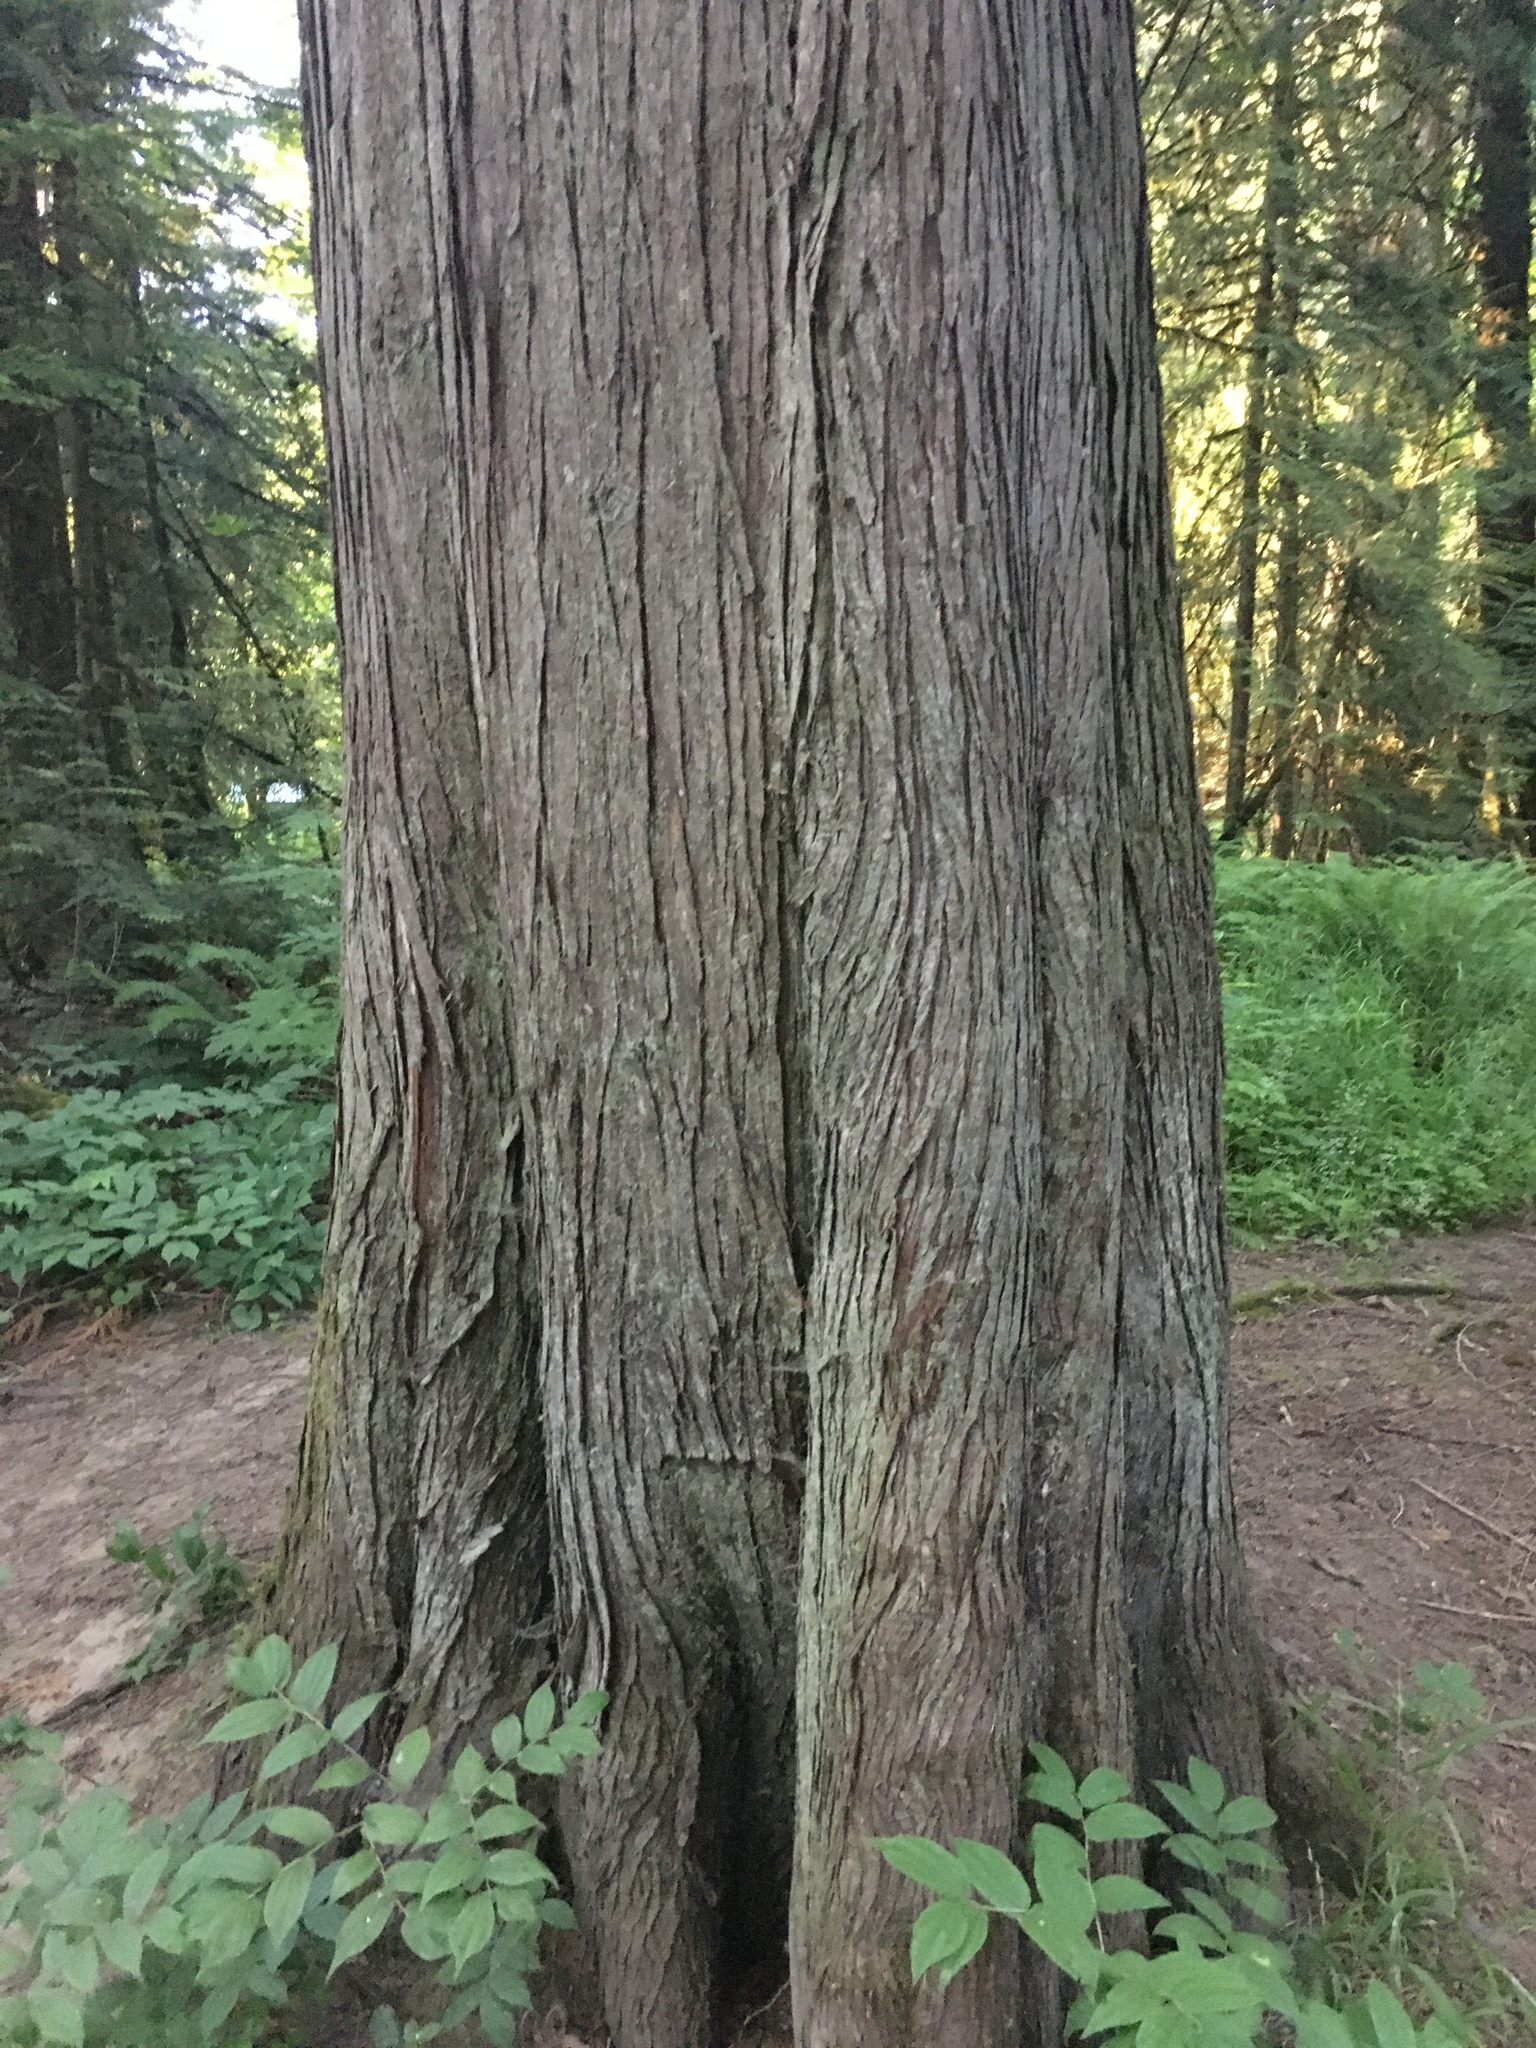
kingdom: Plantae
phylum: Tracheophyta
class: Pinopsida
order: Pinales
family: Cupressaceae
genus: Thuja
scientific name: Thuja plicata
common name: Western red-cedar
